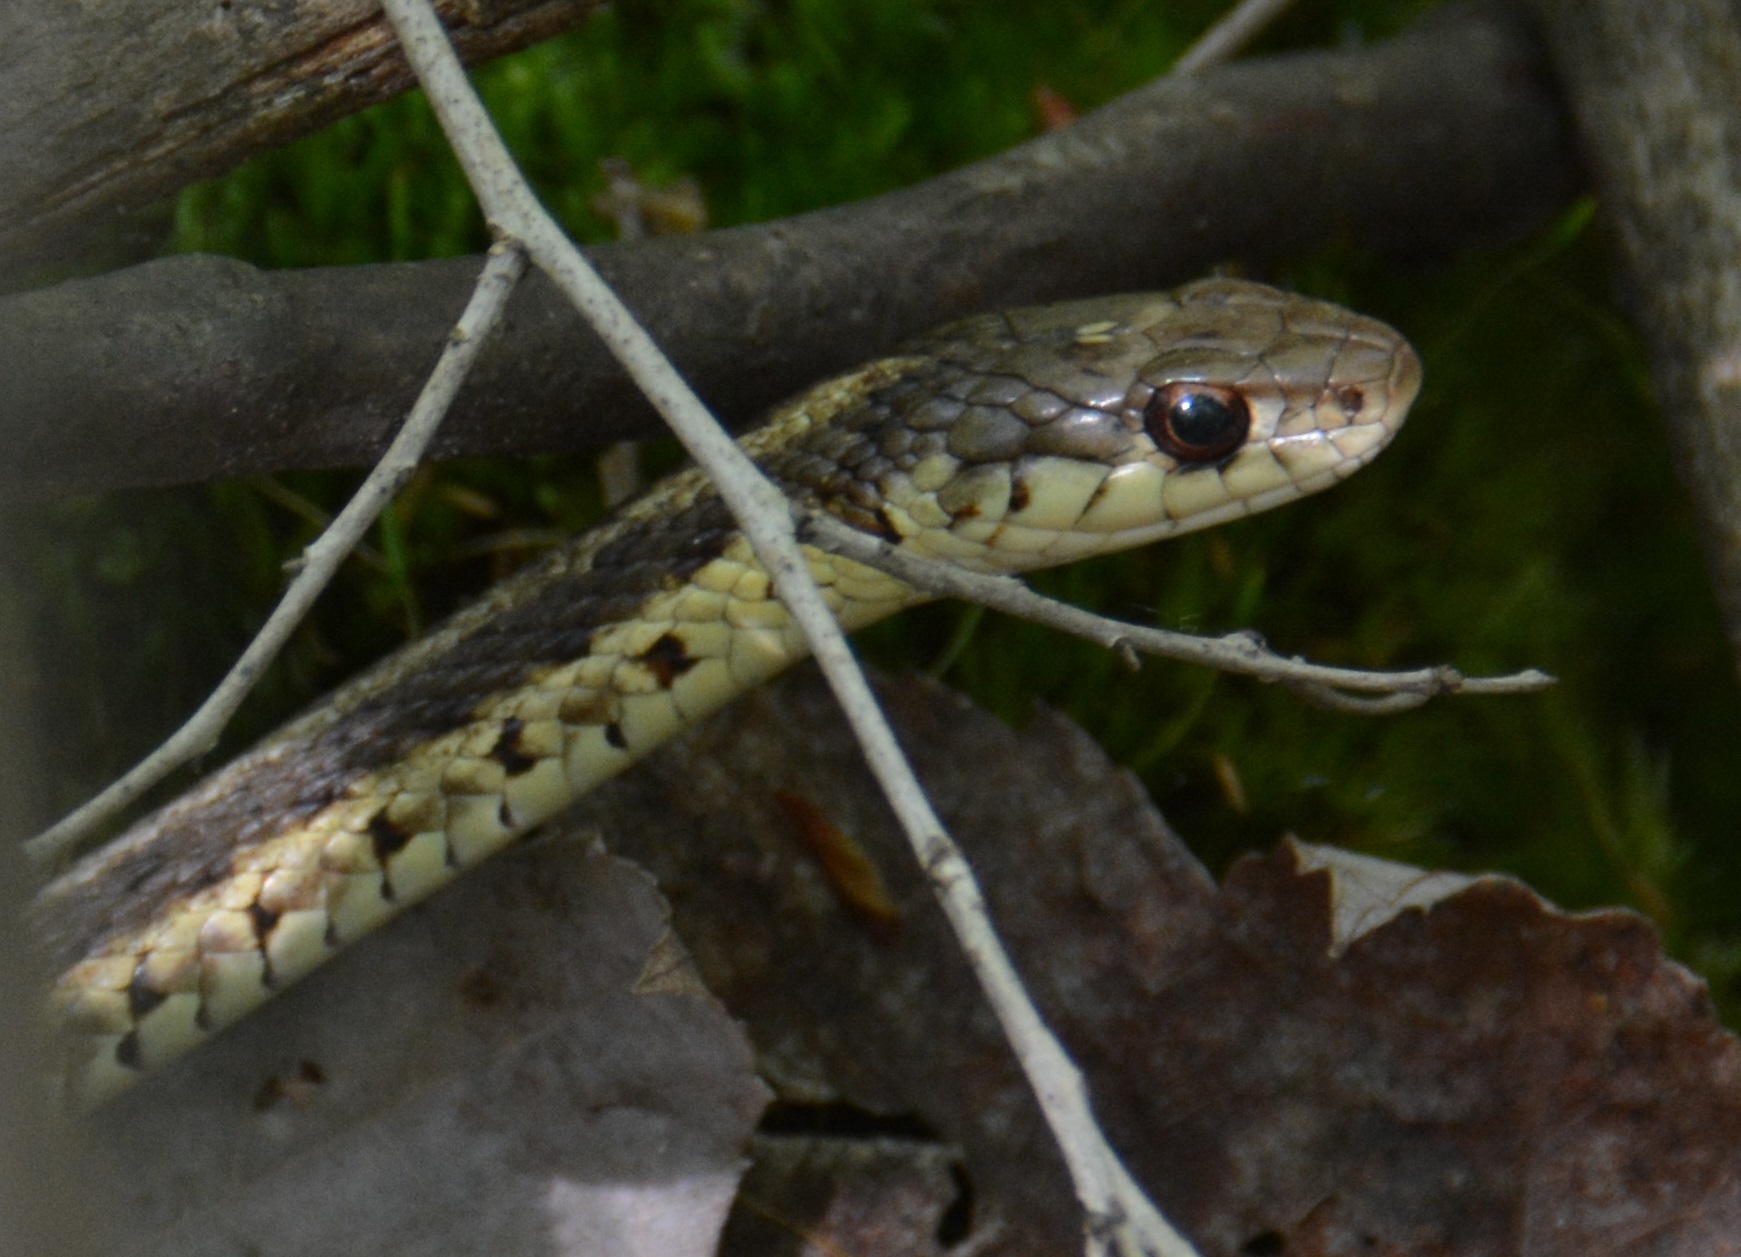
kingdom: Animalia
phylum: Chordata
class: Squamata
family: Colubridae
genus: Thamnophis
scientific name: Thamnophis sirtalis
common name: Common garter snake
